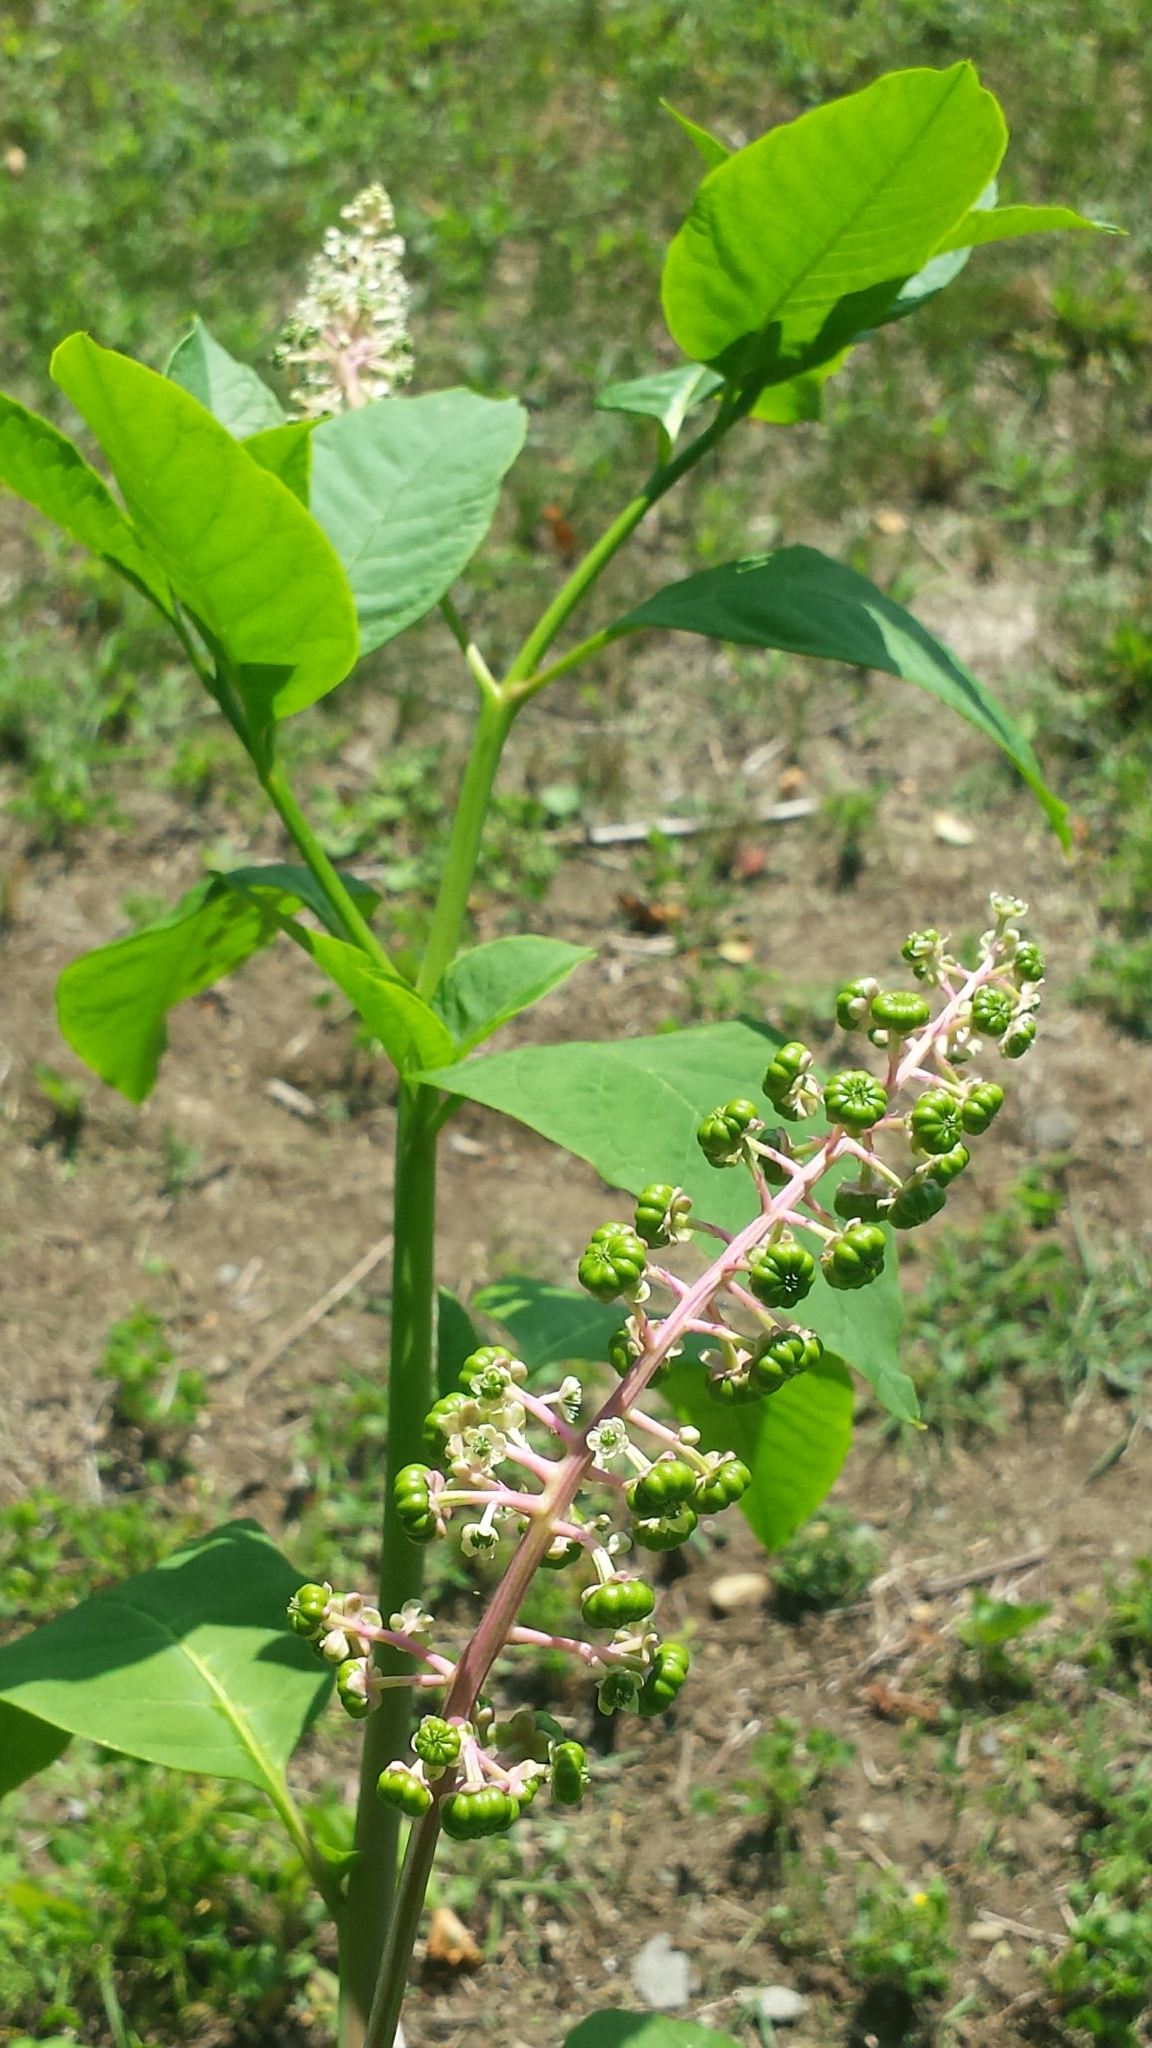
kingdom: Plantae
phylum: Tracheophyta
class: Magnoliopsida
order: Caryophyllales
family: Phytolaccaceae
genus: Phytolacca
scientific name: Phytolacca americana
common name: American pokeweed
